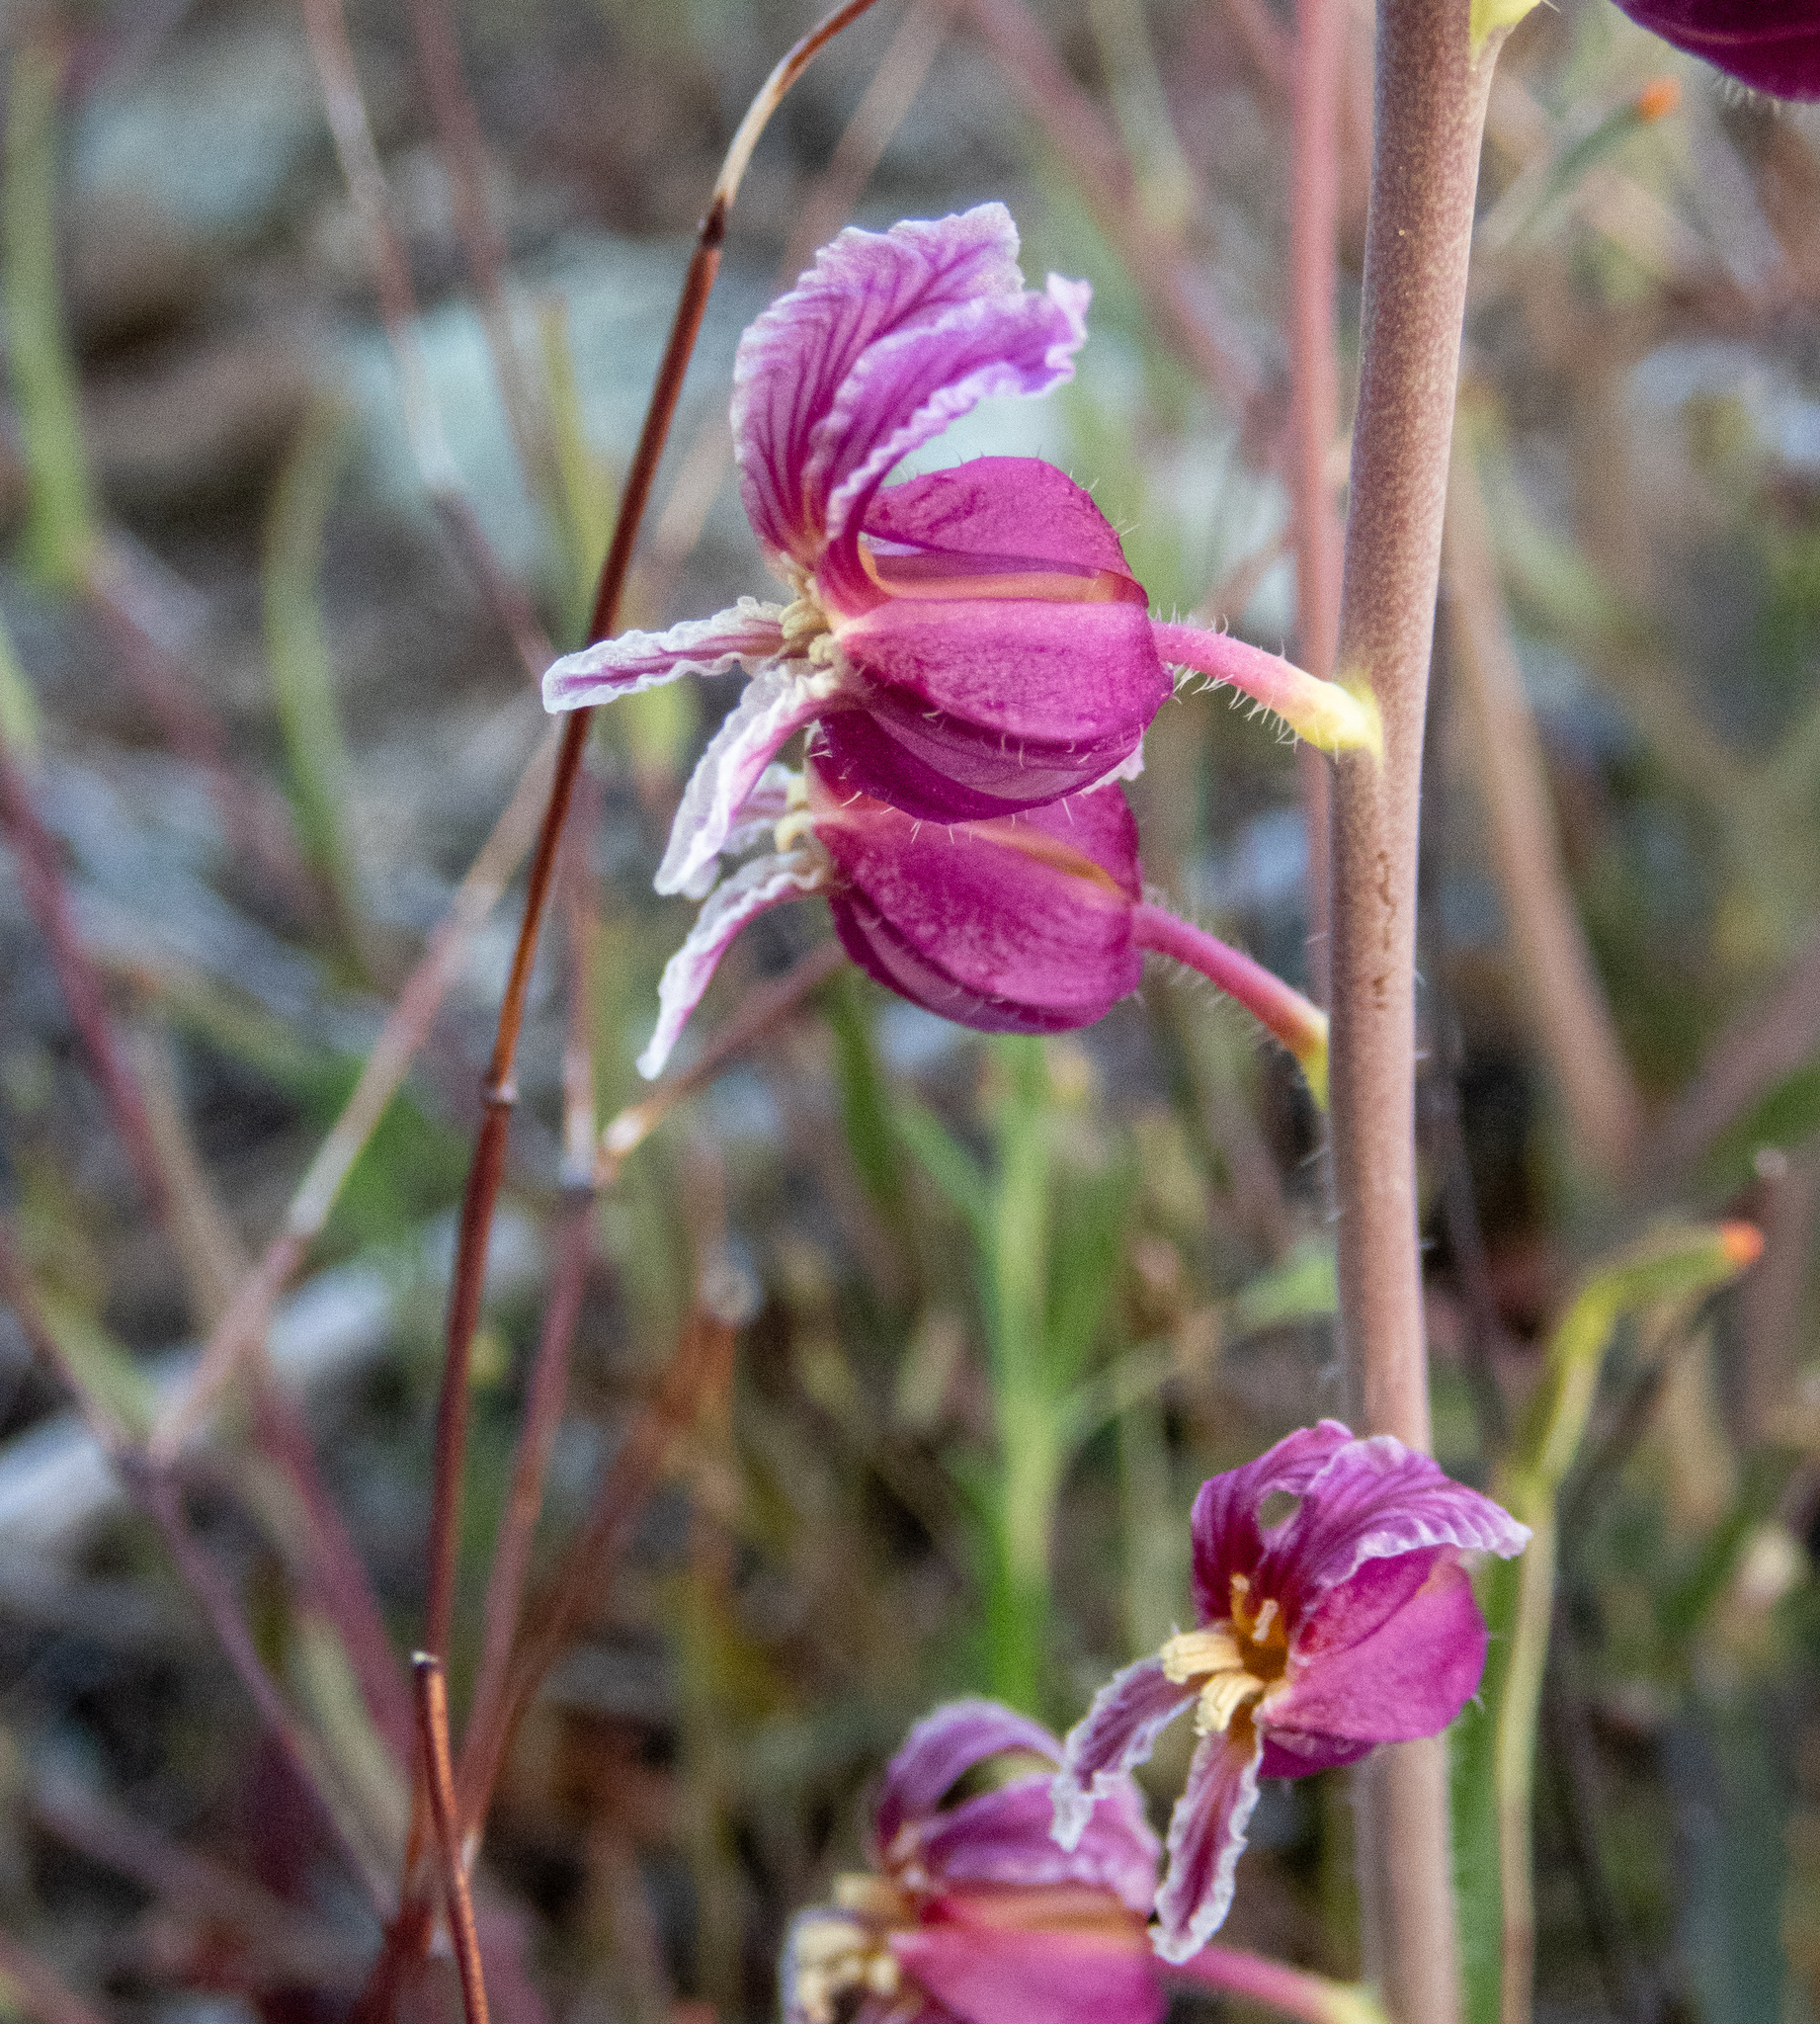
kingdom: Plantae
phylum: Tracheophyta
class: Magnoliopsida
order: Brassicales
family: Brassicaceae
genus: Streptanthus
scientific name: Streptanthus glandulosus
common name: Jewel-flower
